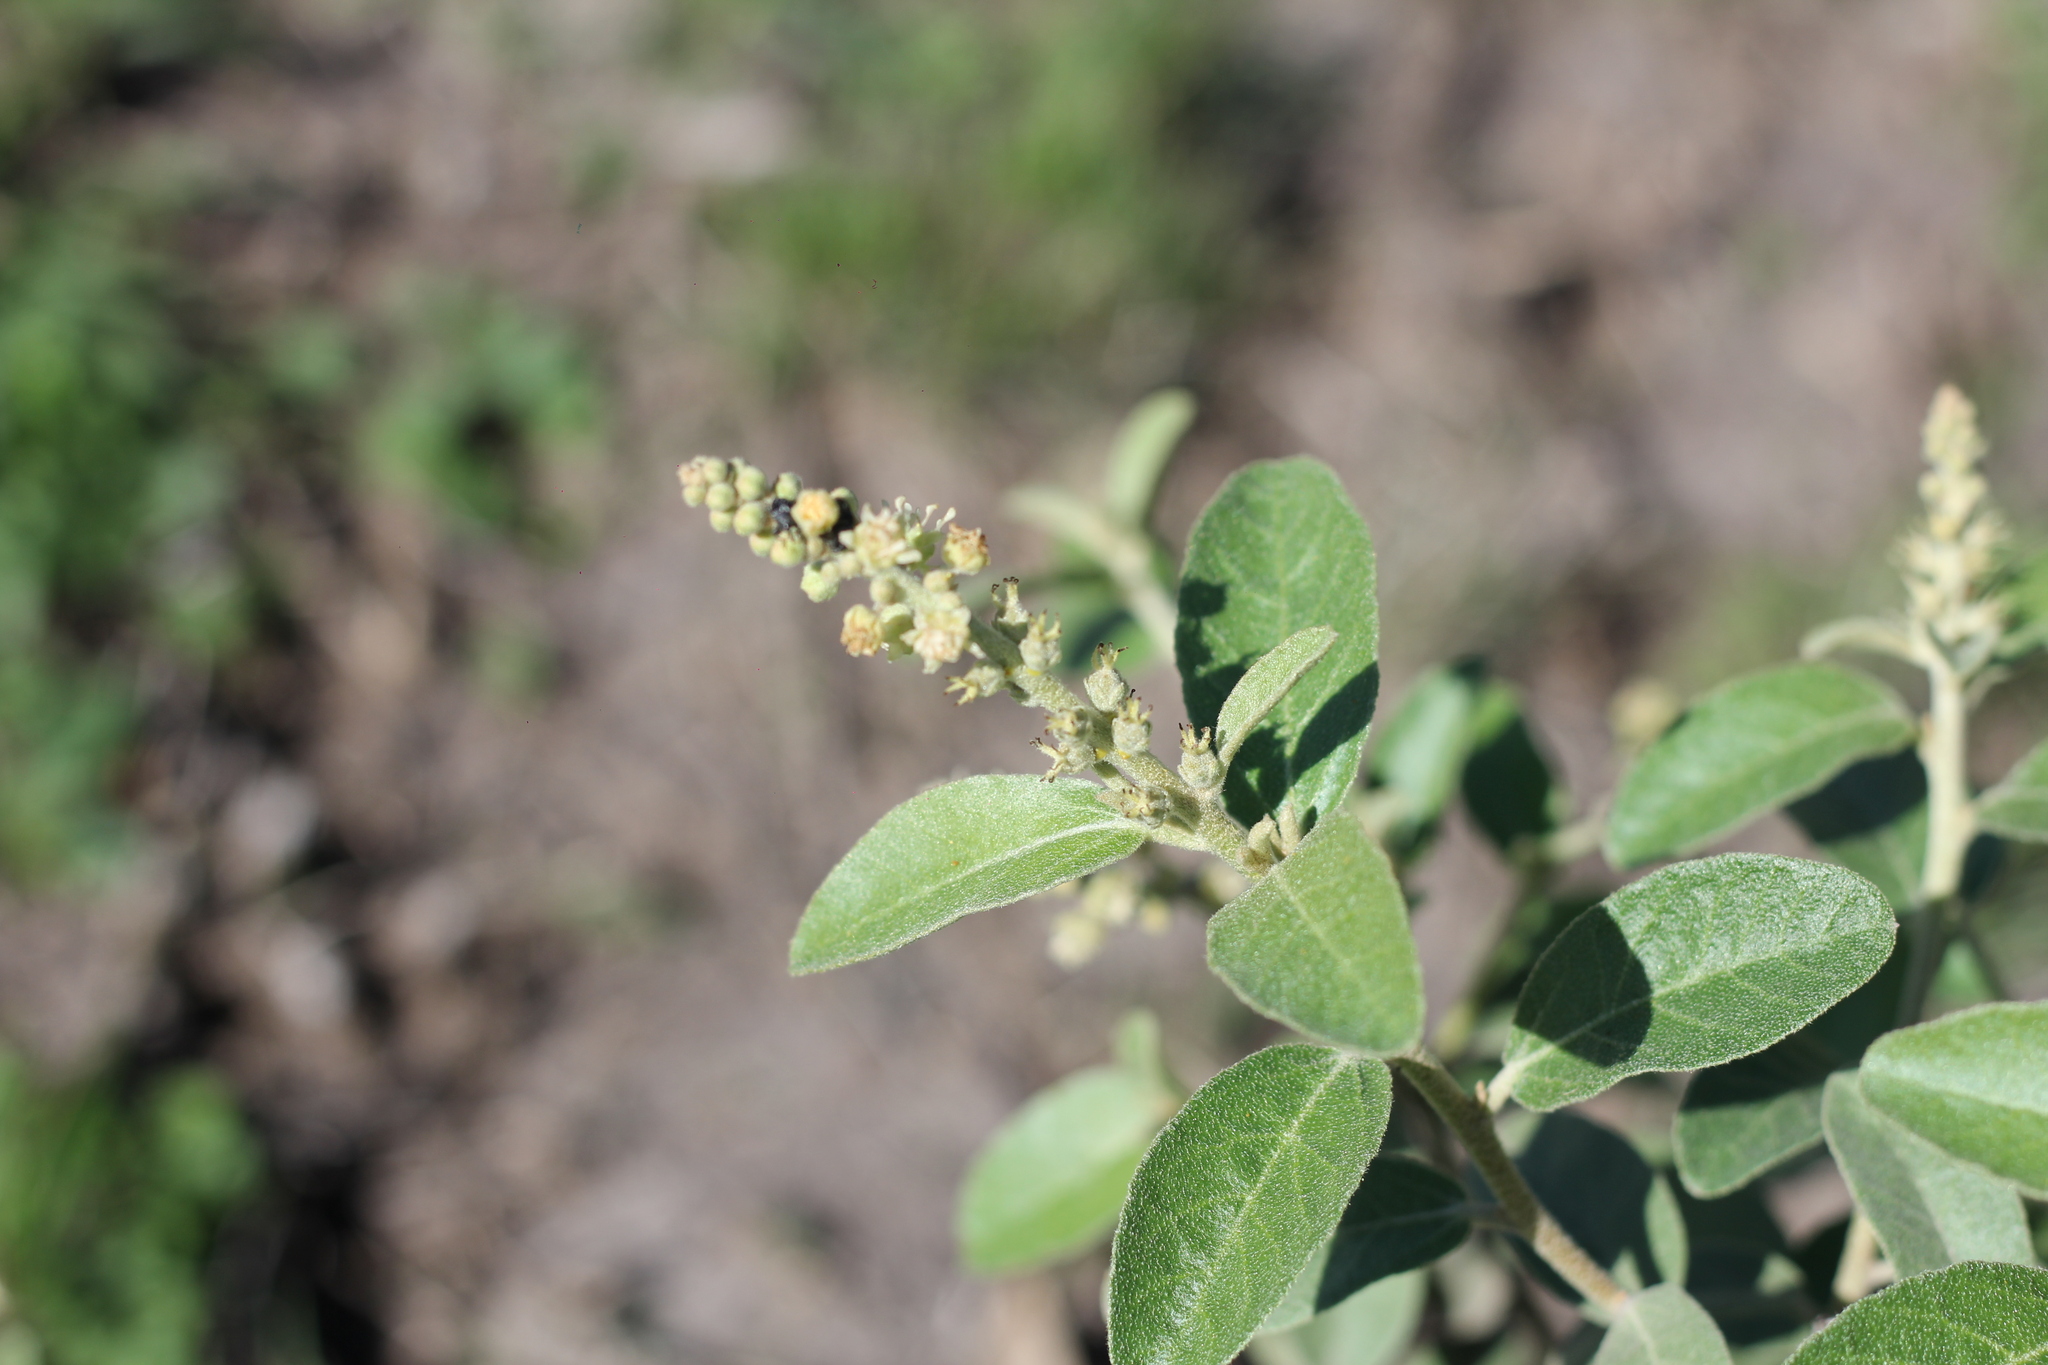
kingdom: Plantae
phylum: Tracheophyta
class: Magnoliopsida
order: Malpighiales
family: Euphorbiaceae
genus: Croton
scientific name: Croton lanatus
